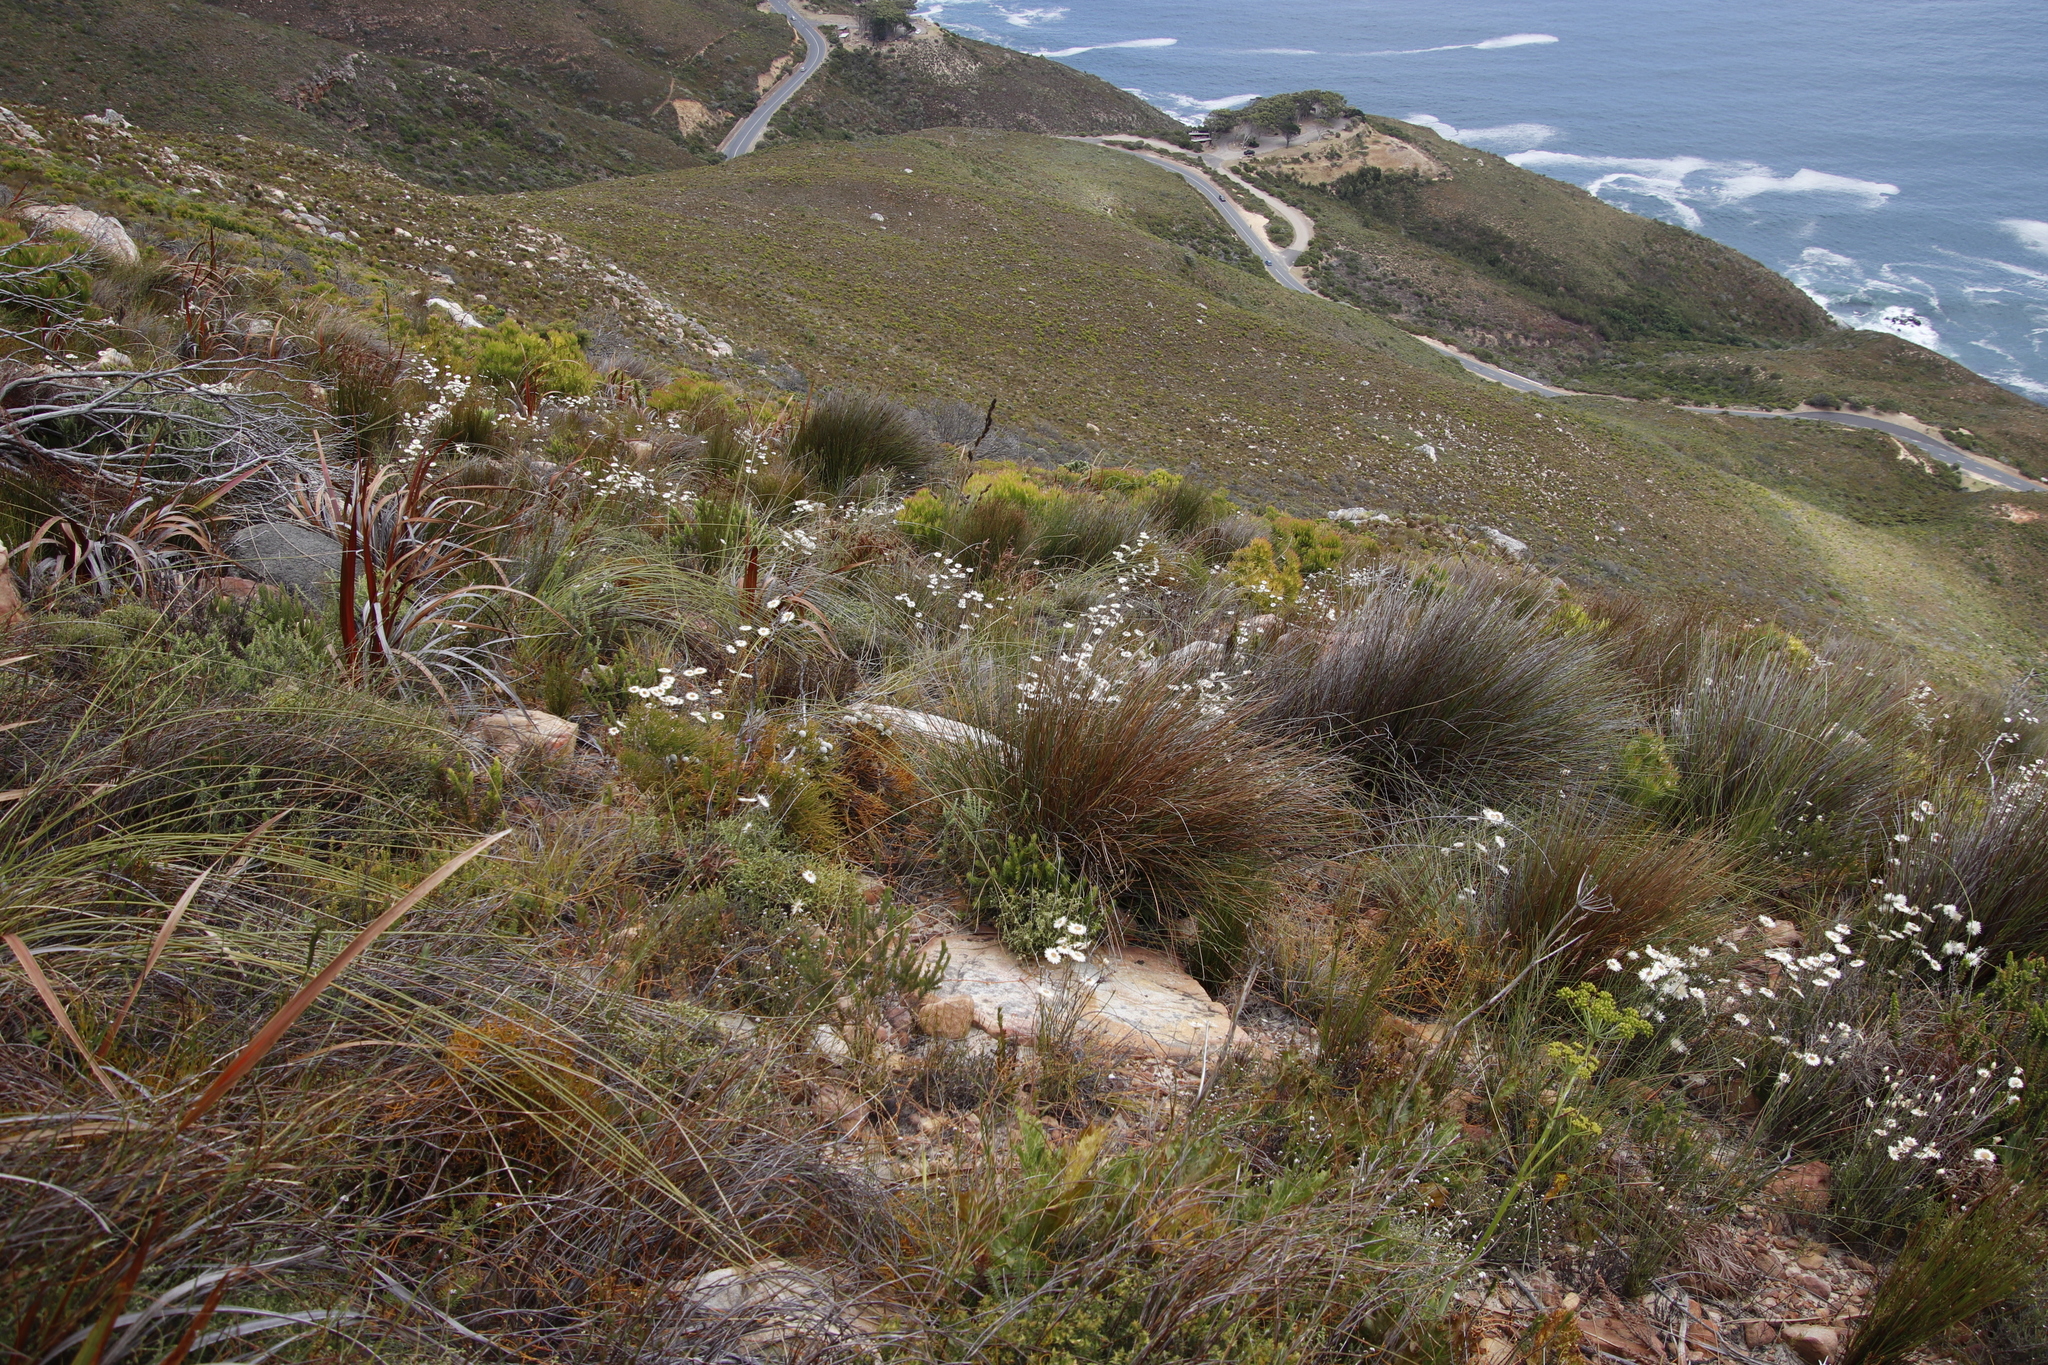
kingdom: Plantae
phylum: Tracheophyta
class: Magnoliopsida
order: Asterales
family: Asteraceae
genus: Edmondia
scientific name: Edmondia sesamoides
